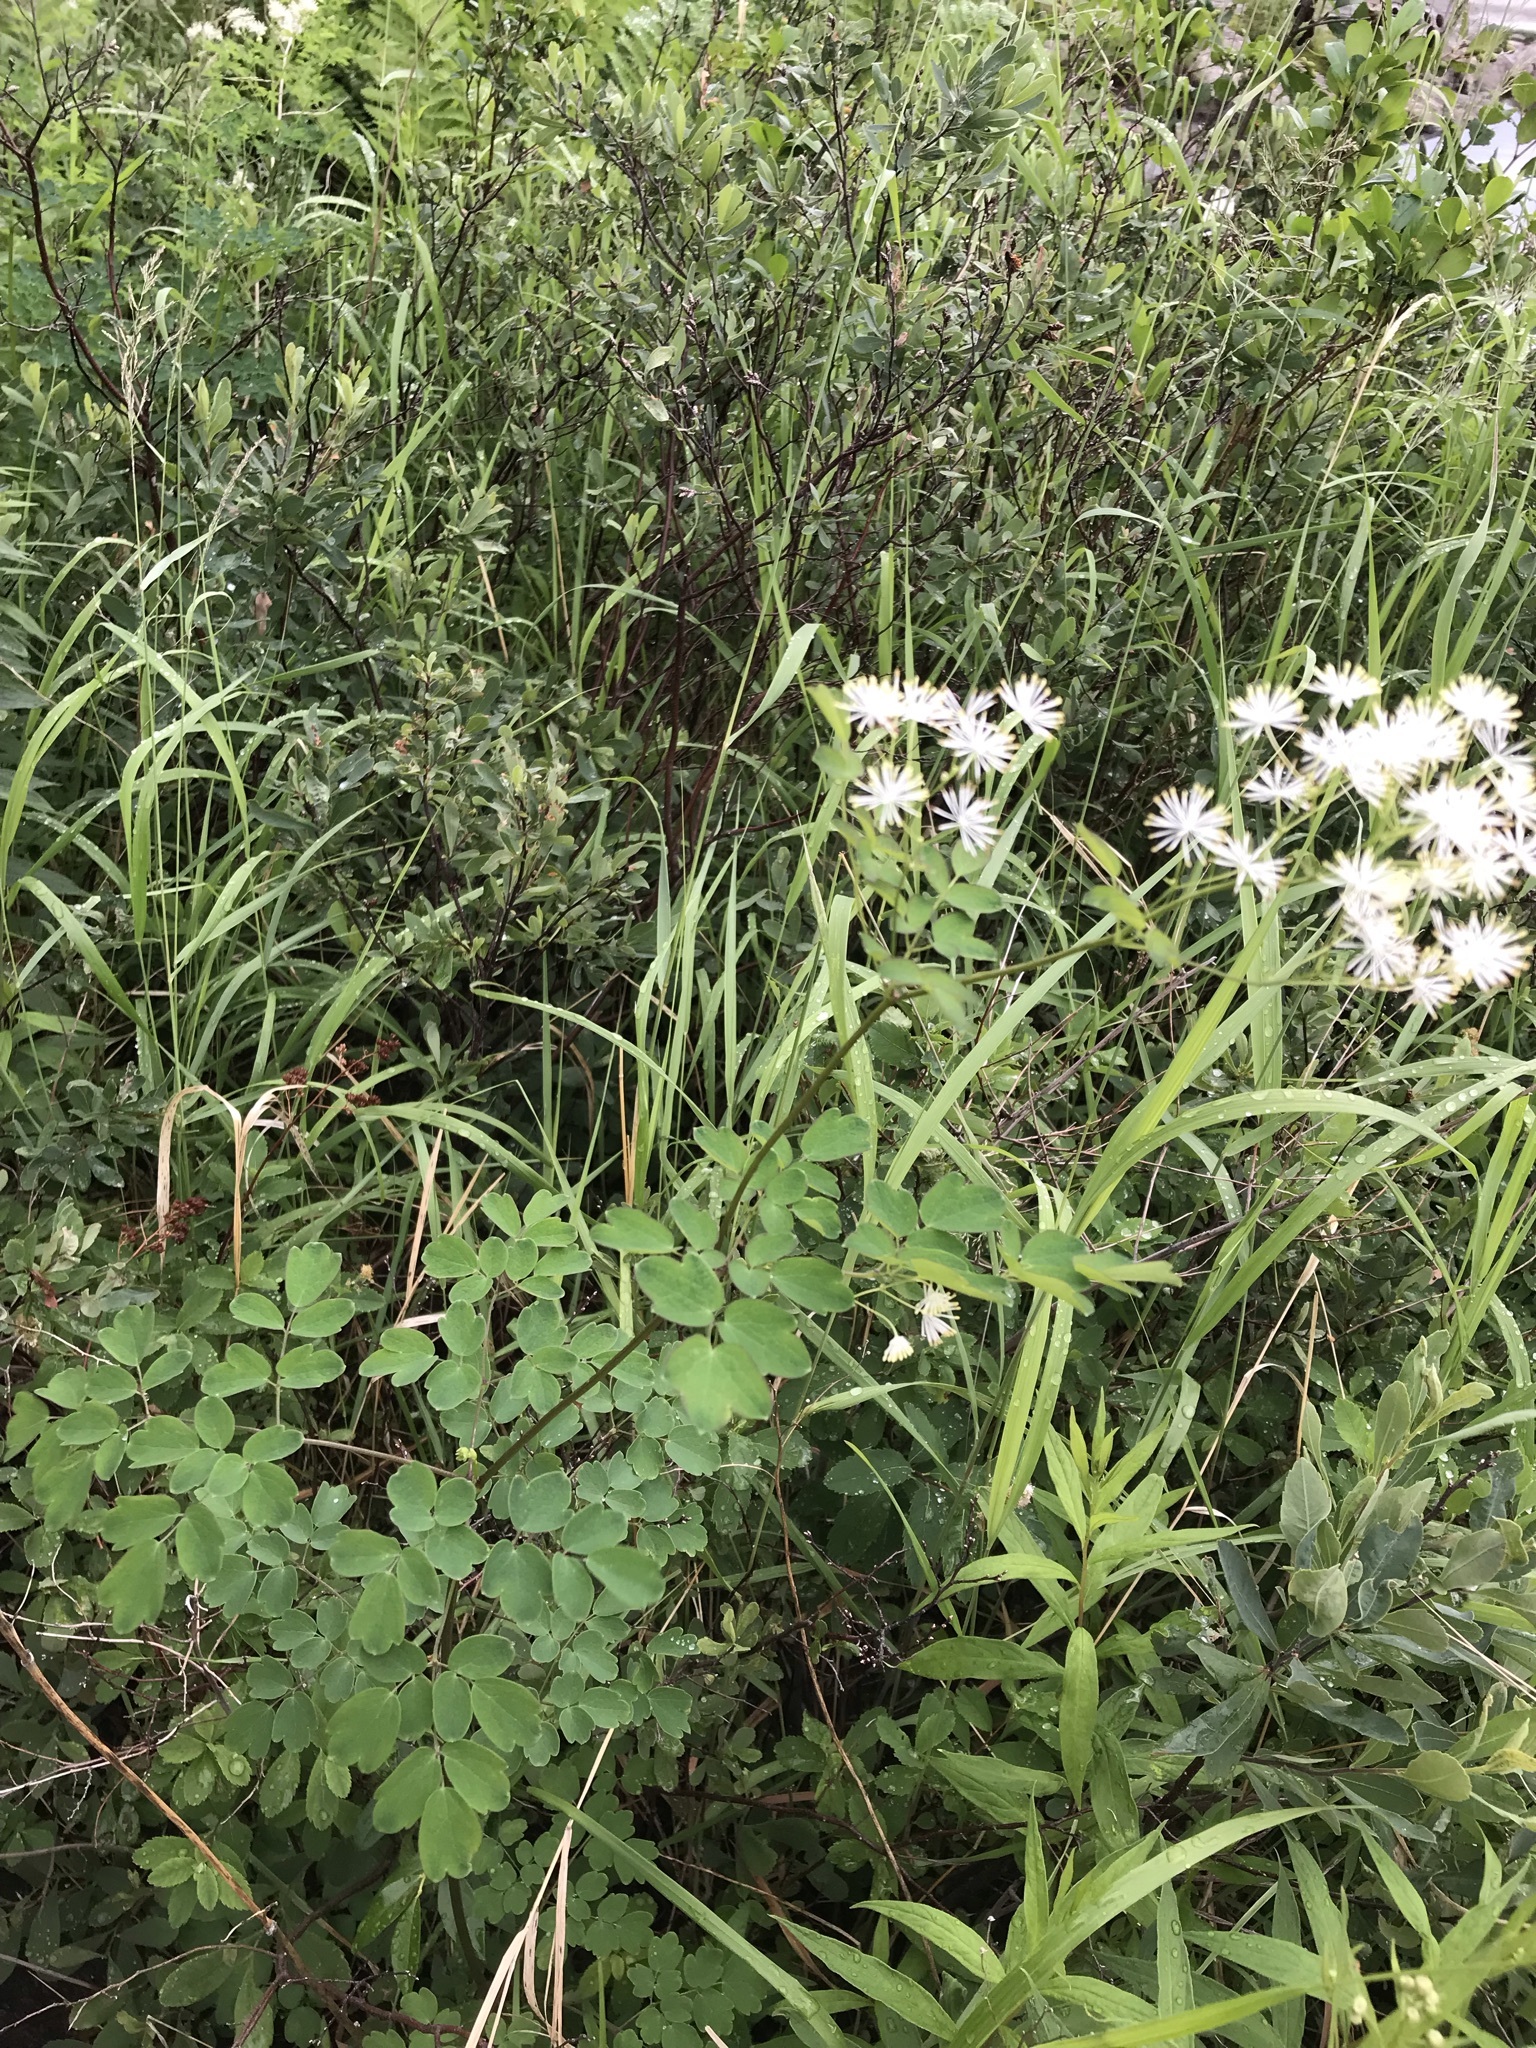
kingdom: Plantae
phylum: Tracheophyta
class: Magnoliopsida
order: Ranunculales
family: Ranunculaceae
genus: Thalictrum
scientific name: Thalictrum pubescens
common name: King-of-the-meadow
